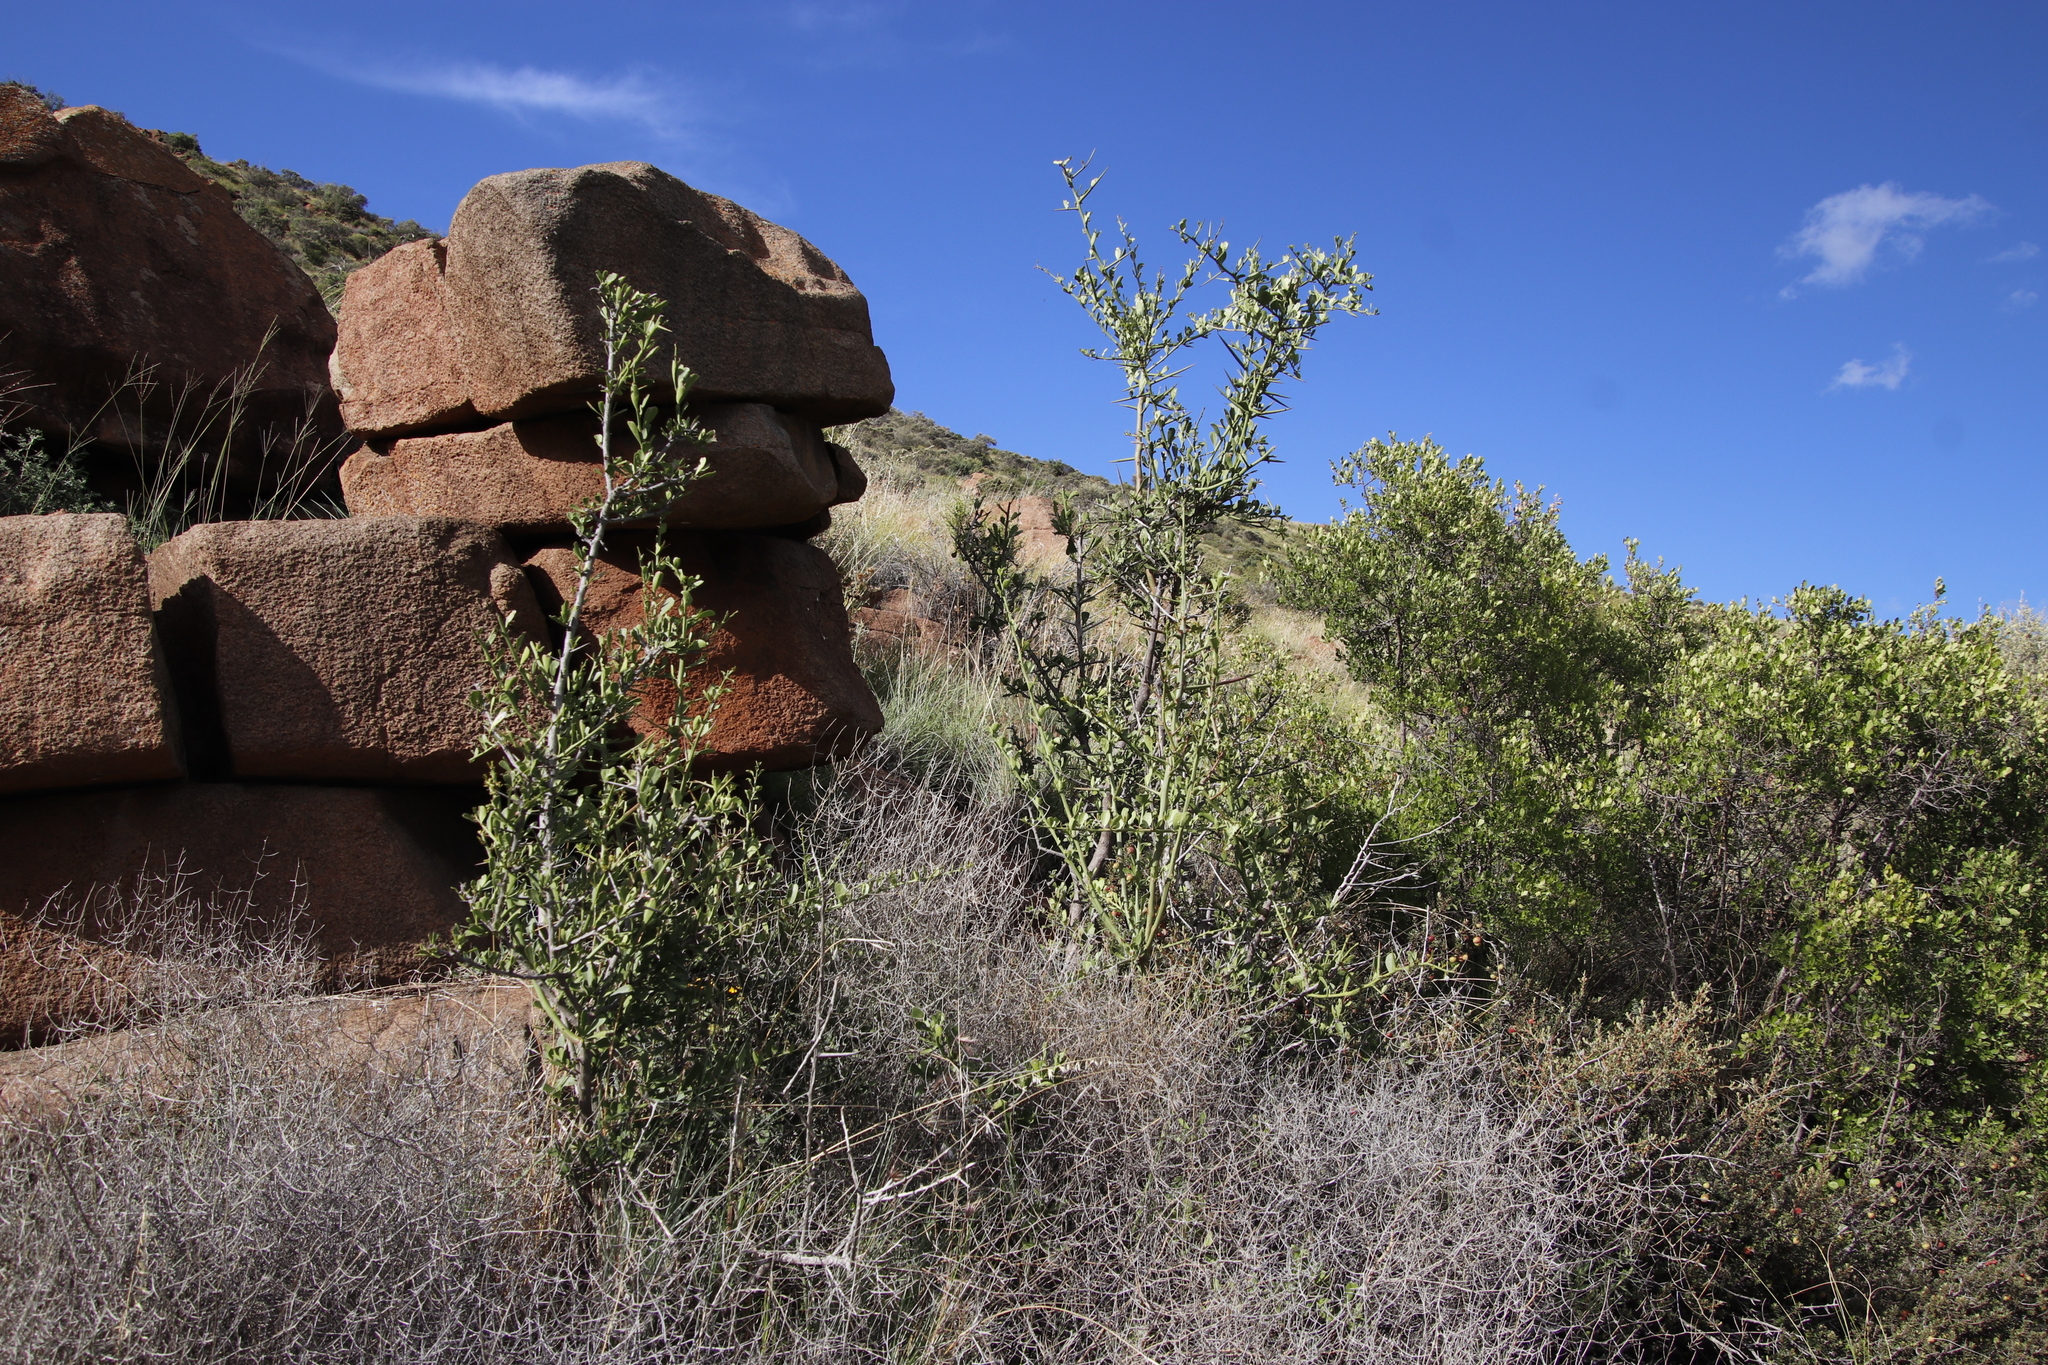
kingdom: Plantae
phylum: Tracheophyta
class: Magnoliopsida
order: Celastrales
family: Celastraceae
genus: Gymnosporia
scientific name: Gymnosporia buxifolia
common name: Common spike-thorn
